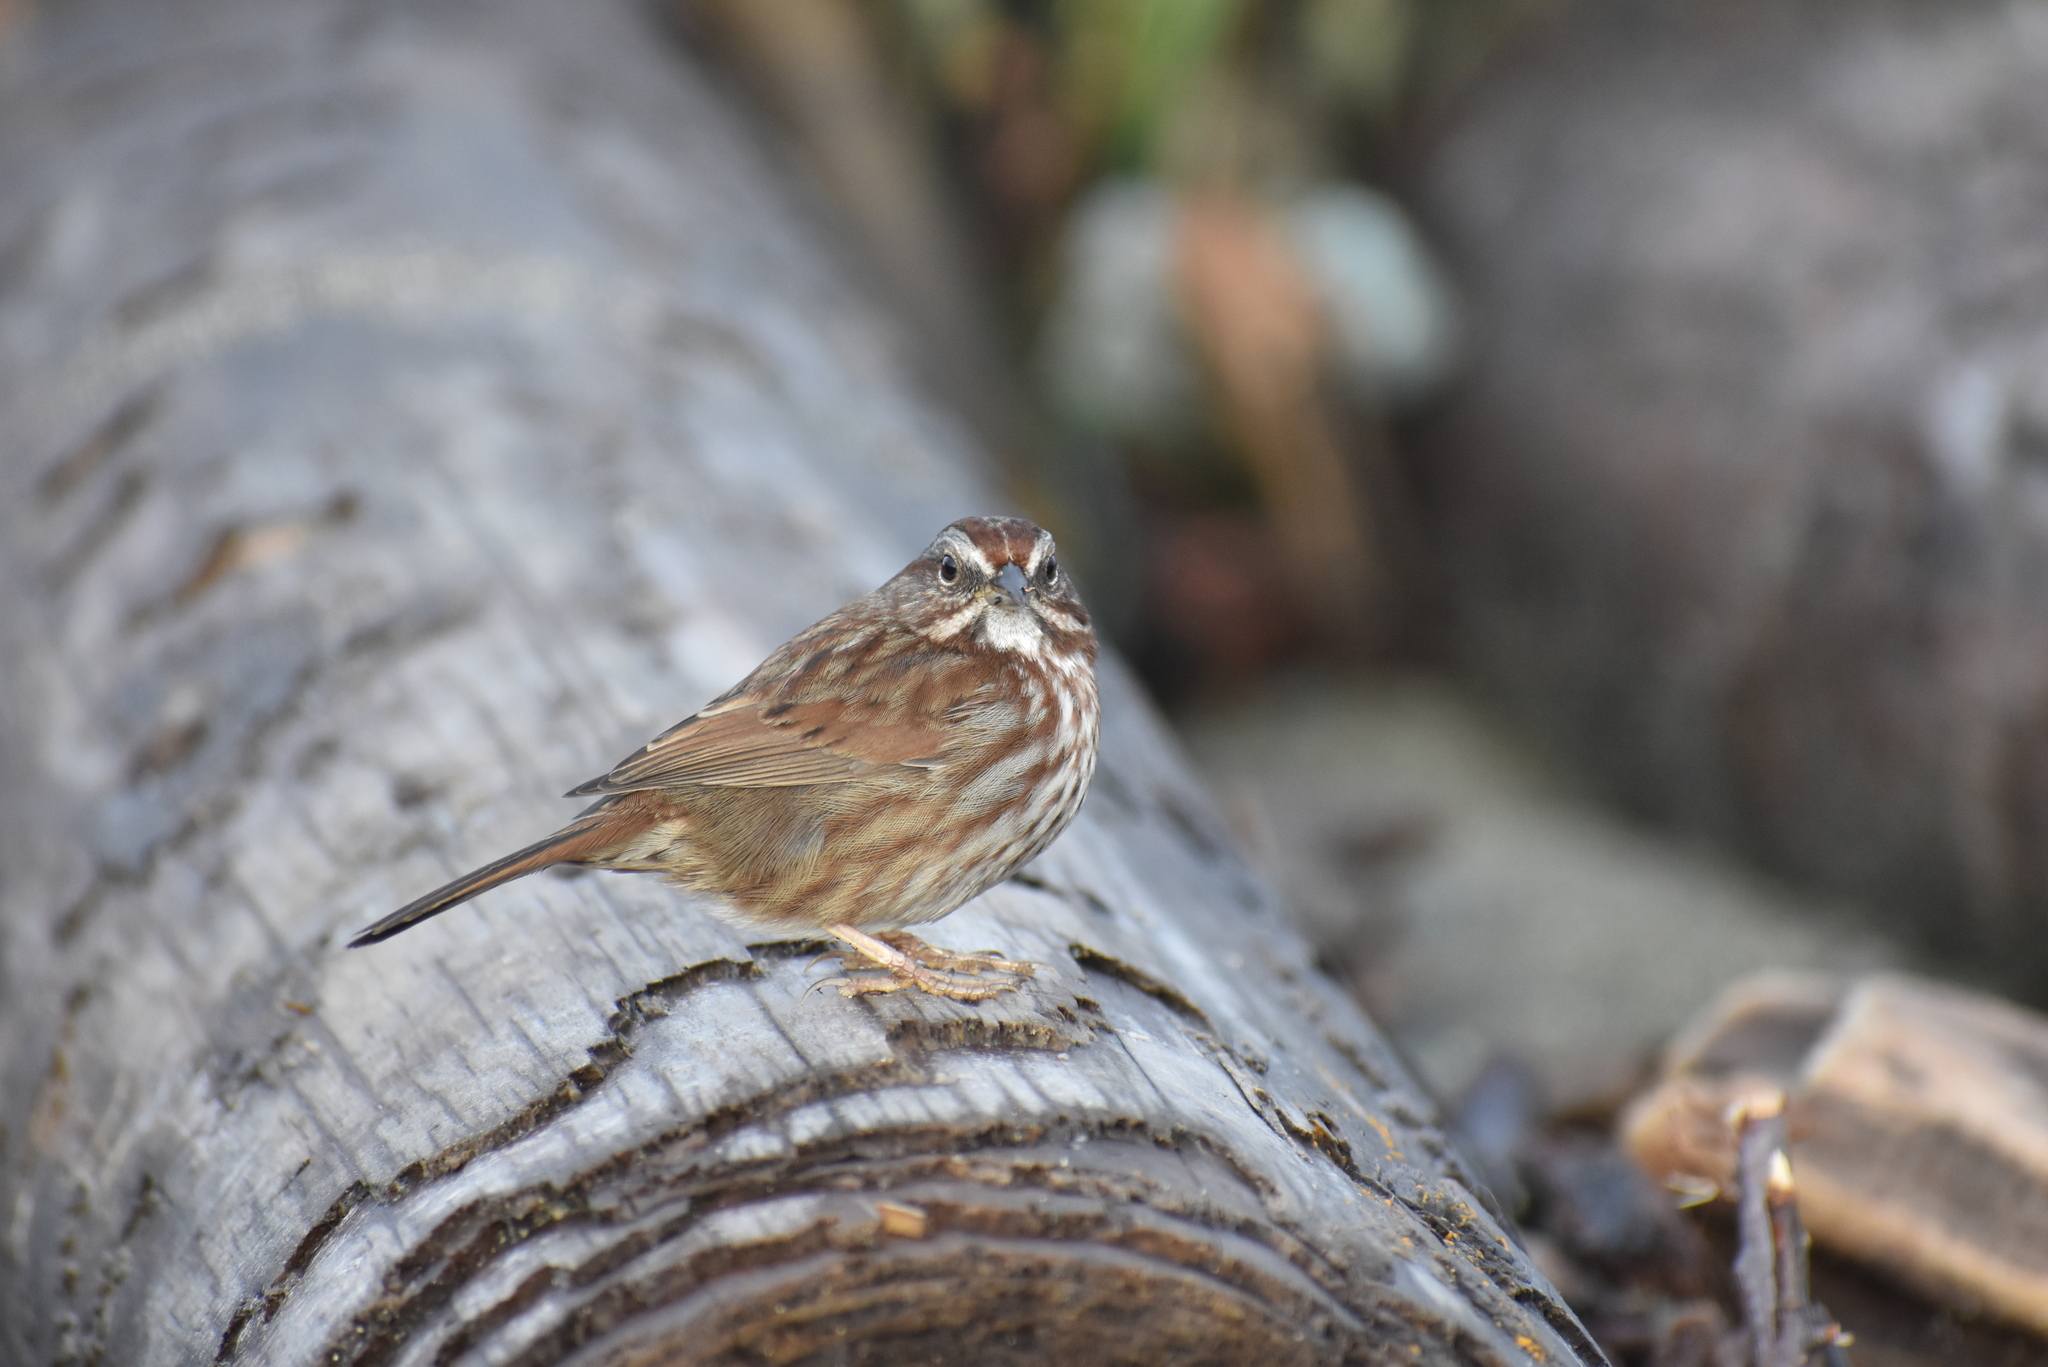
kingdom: Animalia
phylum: Chordata
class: Aves
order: Passeriformes
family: Passerellidae
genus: Melospiza
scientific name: Melospiza melodia
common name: Song sparrow
